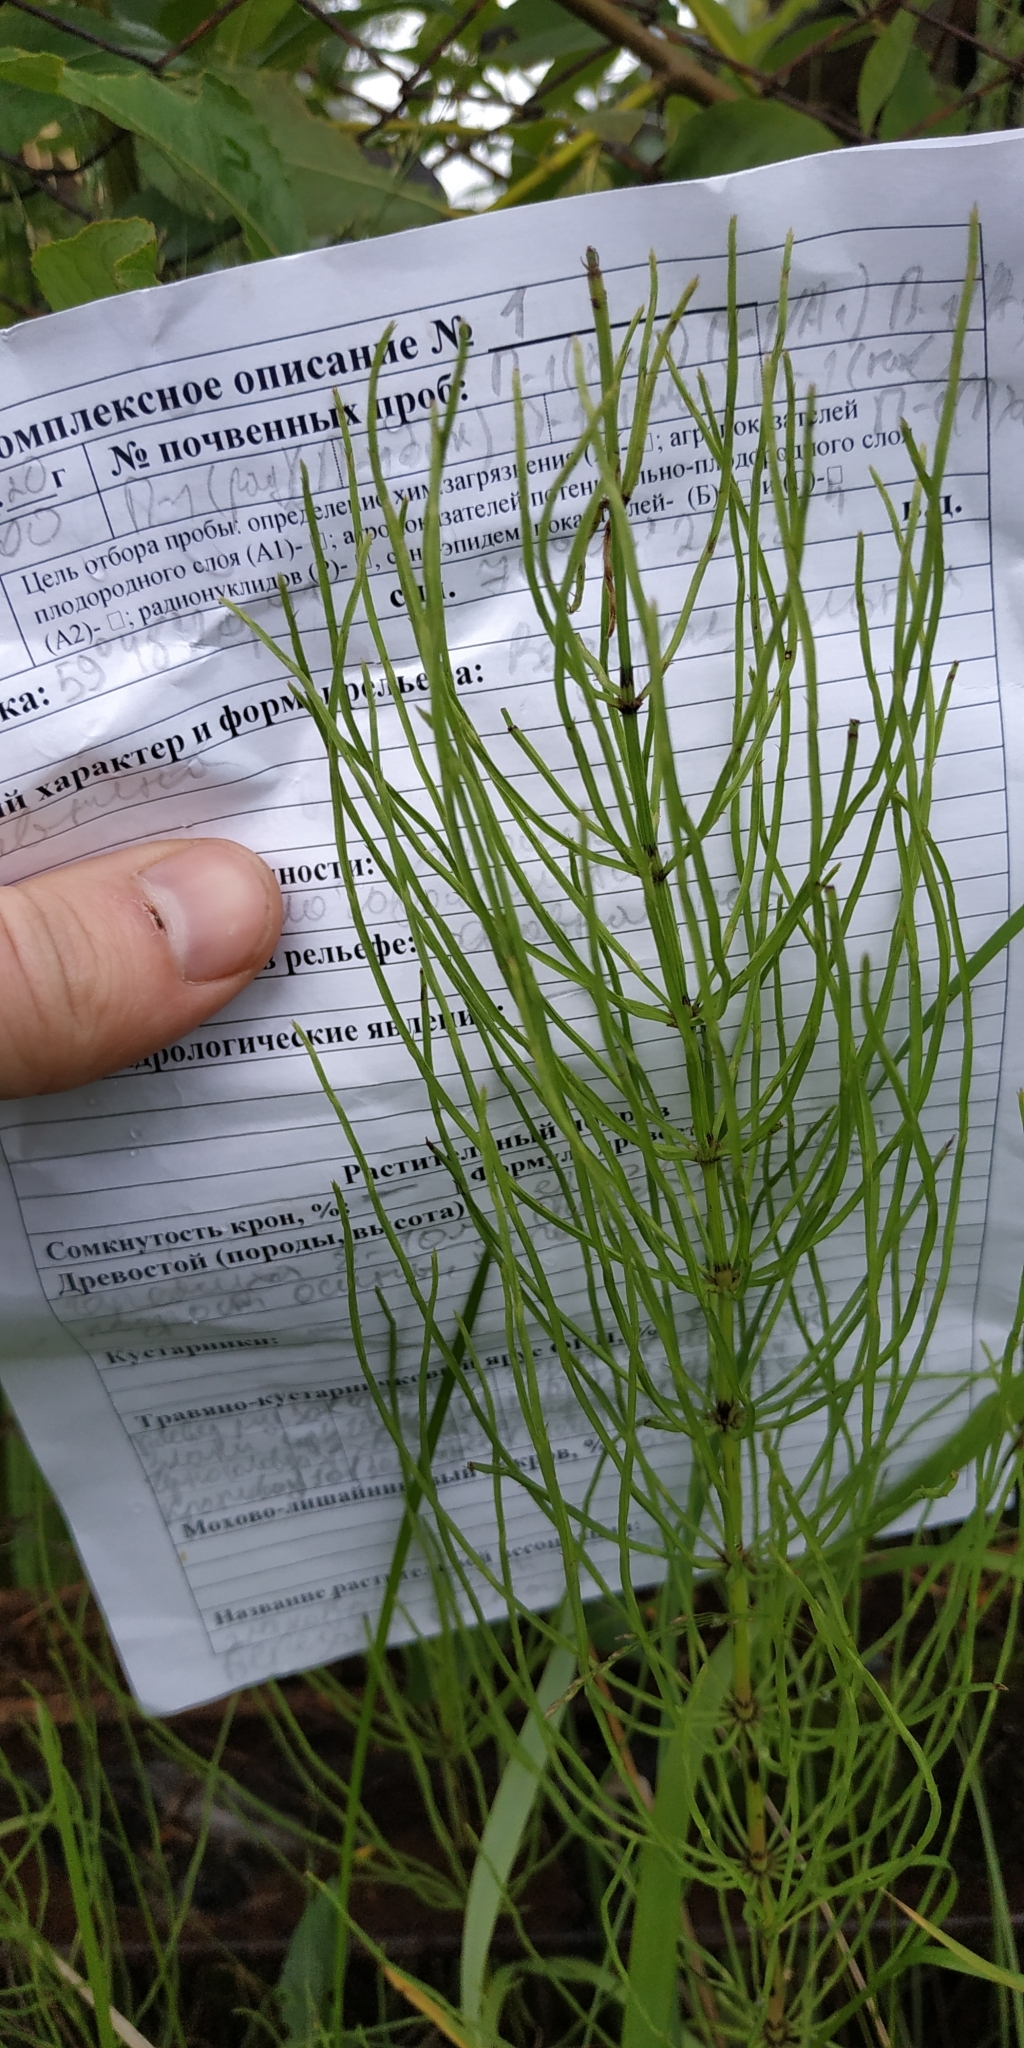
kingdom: Plantae
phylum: Tracheophyta
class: Polypodiopsida
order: Equisetales
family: Equisetaceae
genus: Equisetum
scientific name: Equisetum arvense
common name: Field horsetail
